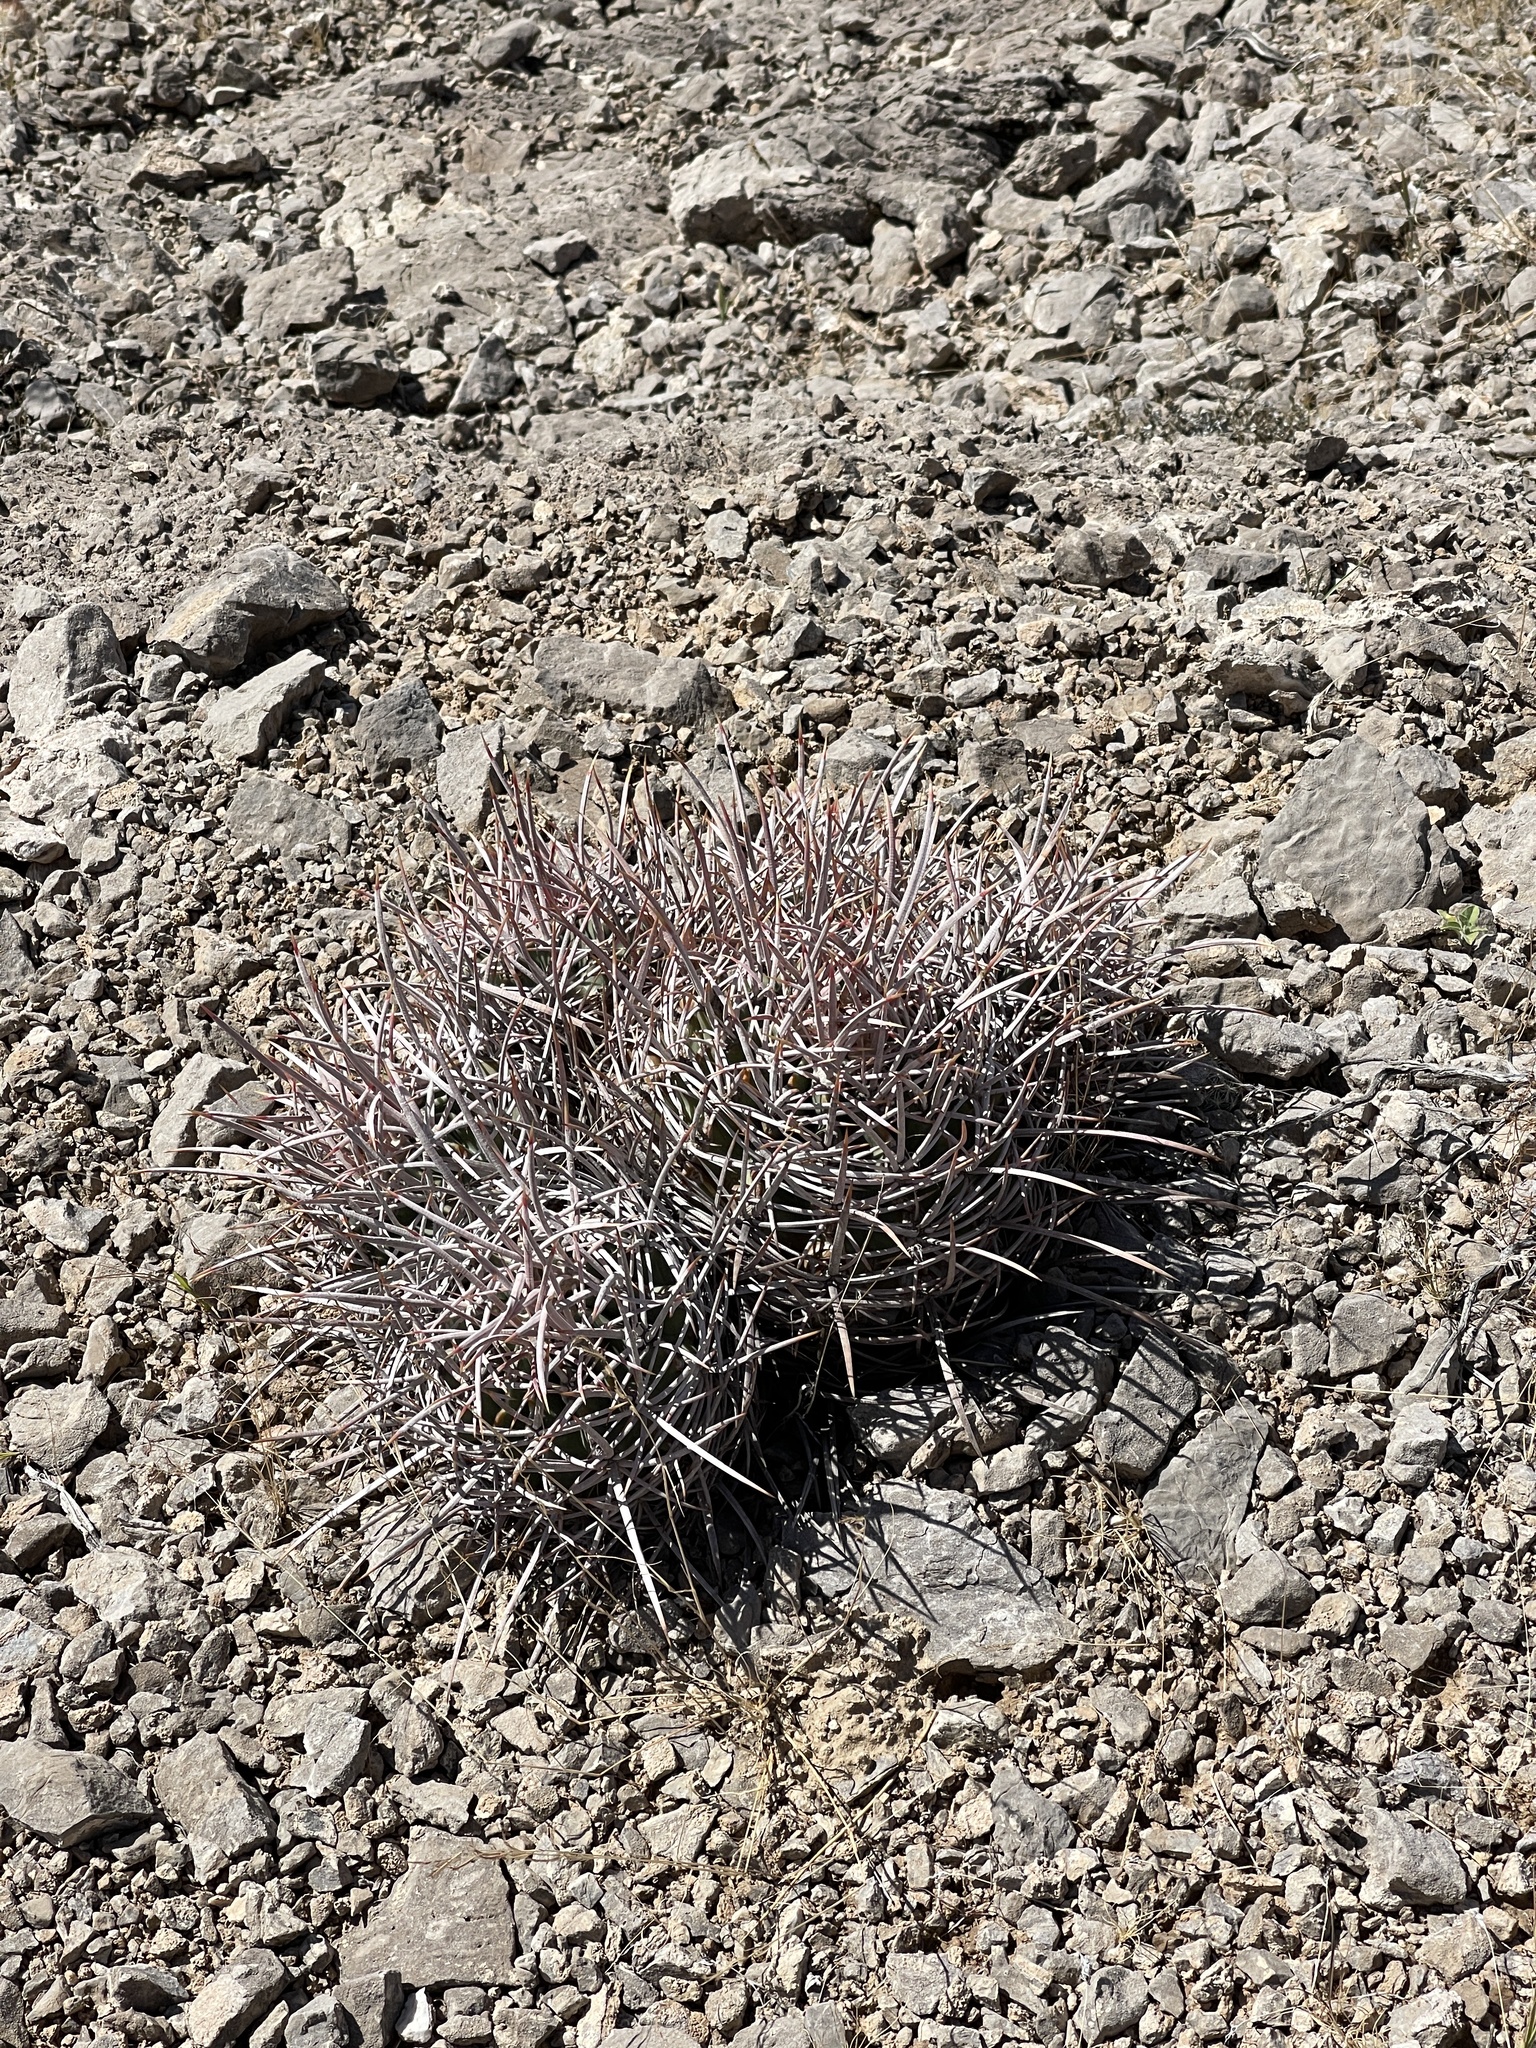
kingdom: Plantae
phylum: Tracheophyta
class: Magnoliopsida
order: Caryophyllales
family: Cactaceae
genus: Echinocactus
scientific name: Echinocactus polycephalus
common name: Cottontop cactus
